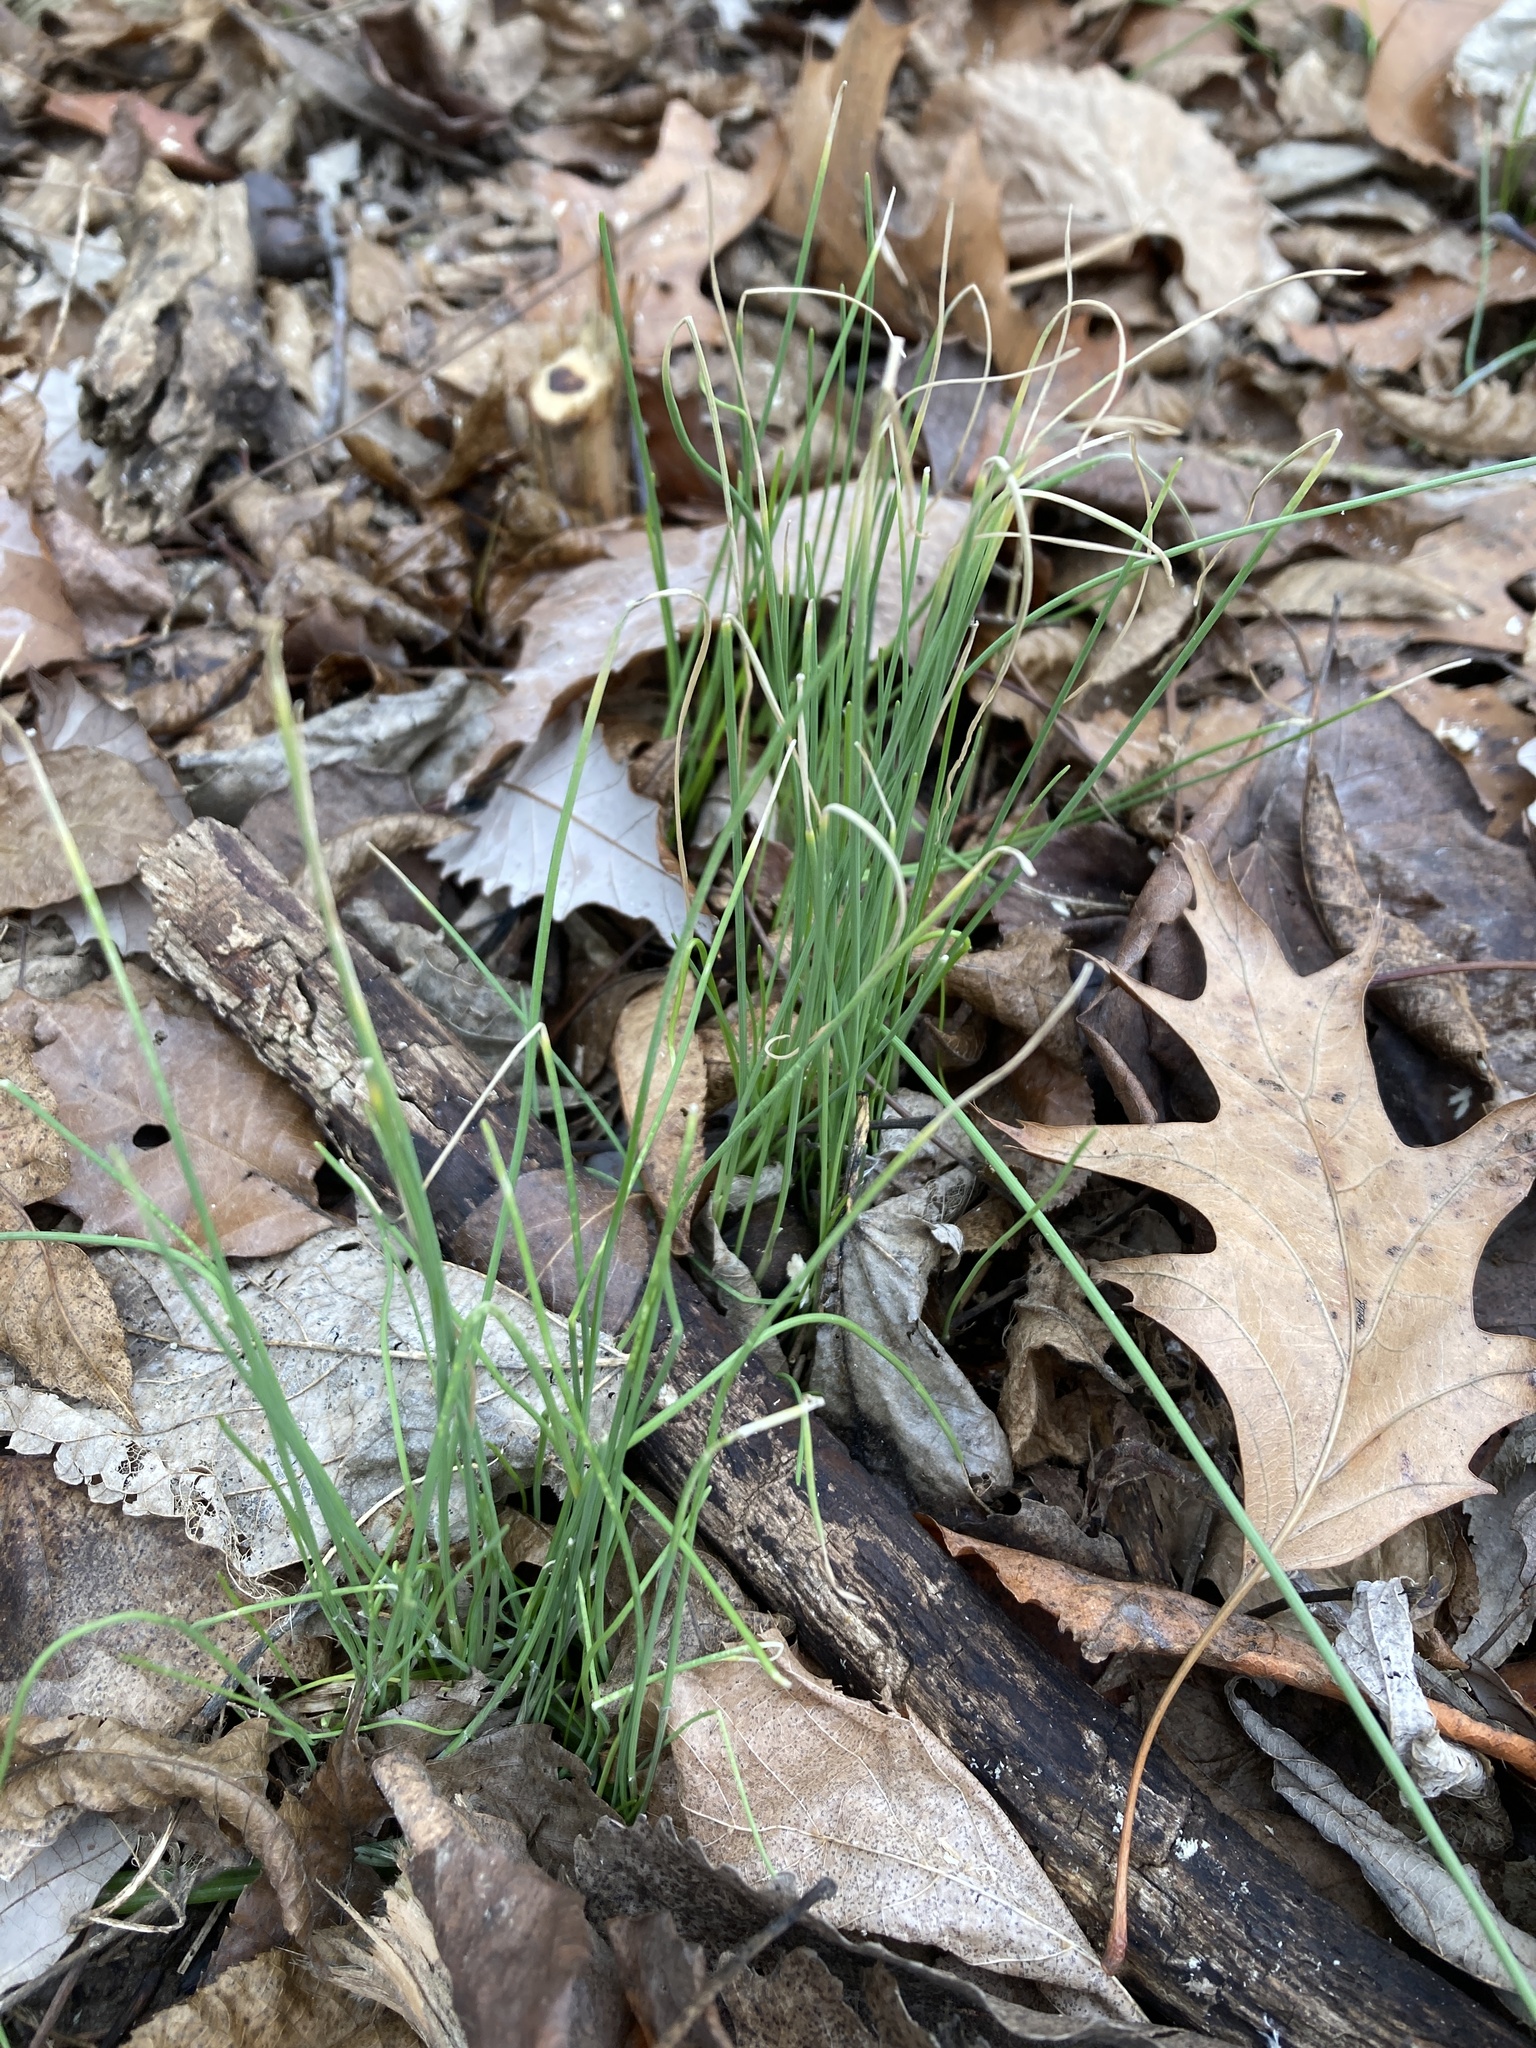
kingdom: Plantae
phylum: Tracheophyta
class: Liliopsida
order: Asparagales
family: Amaryllidaceae
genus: Allium
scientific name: Allium vineale
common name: Crow garlic
